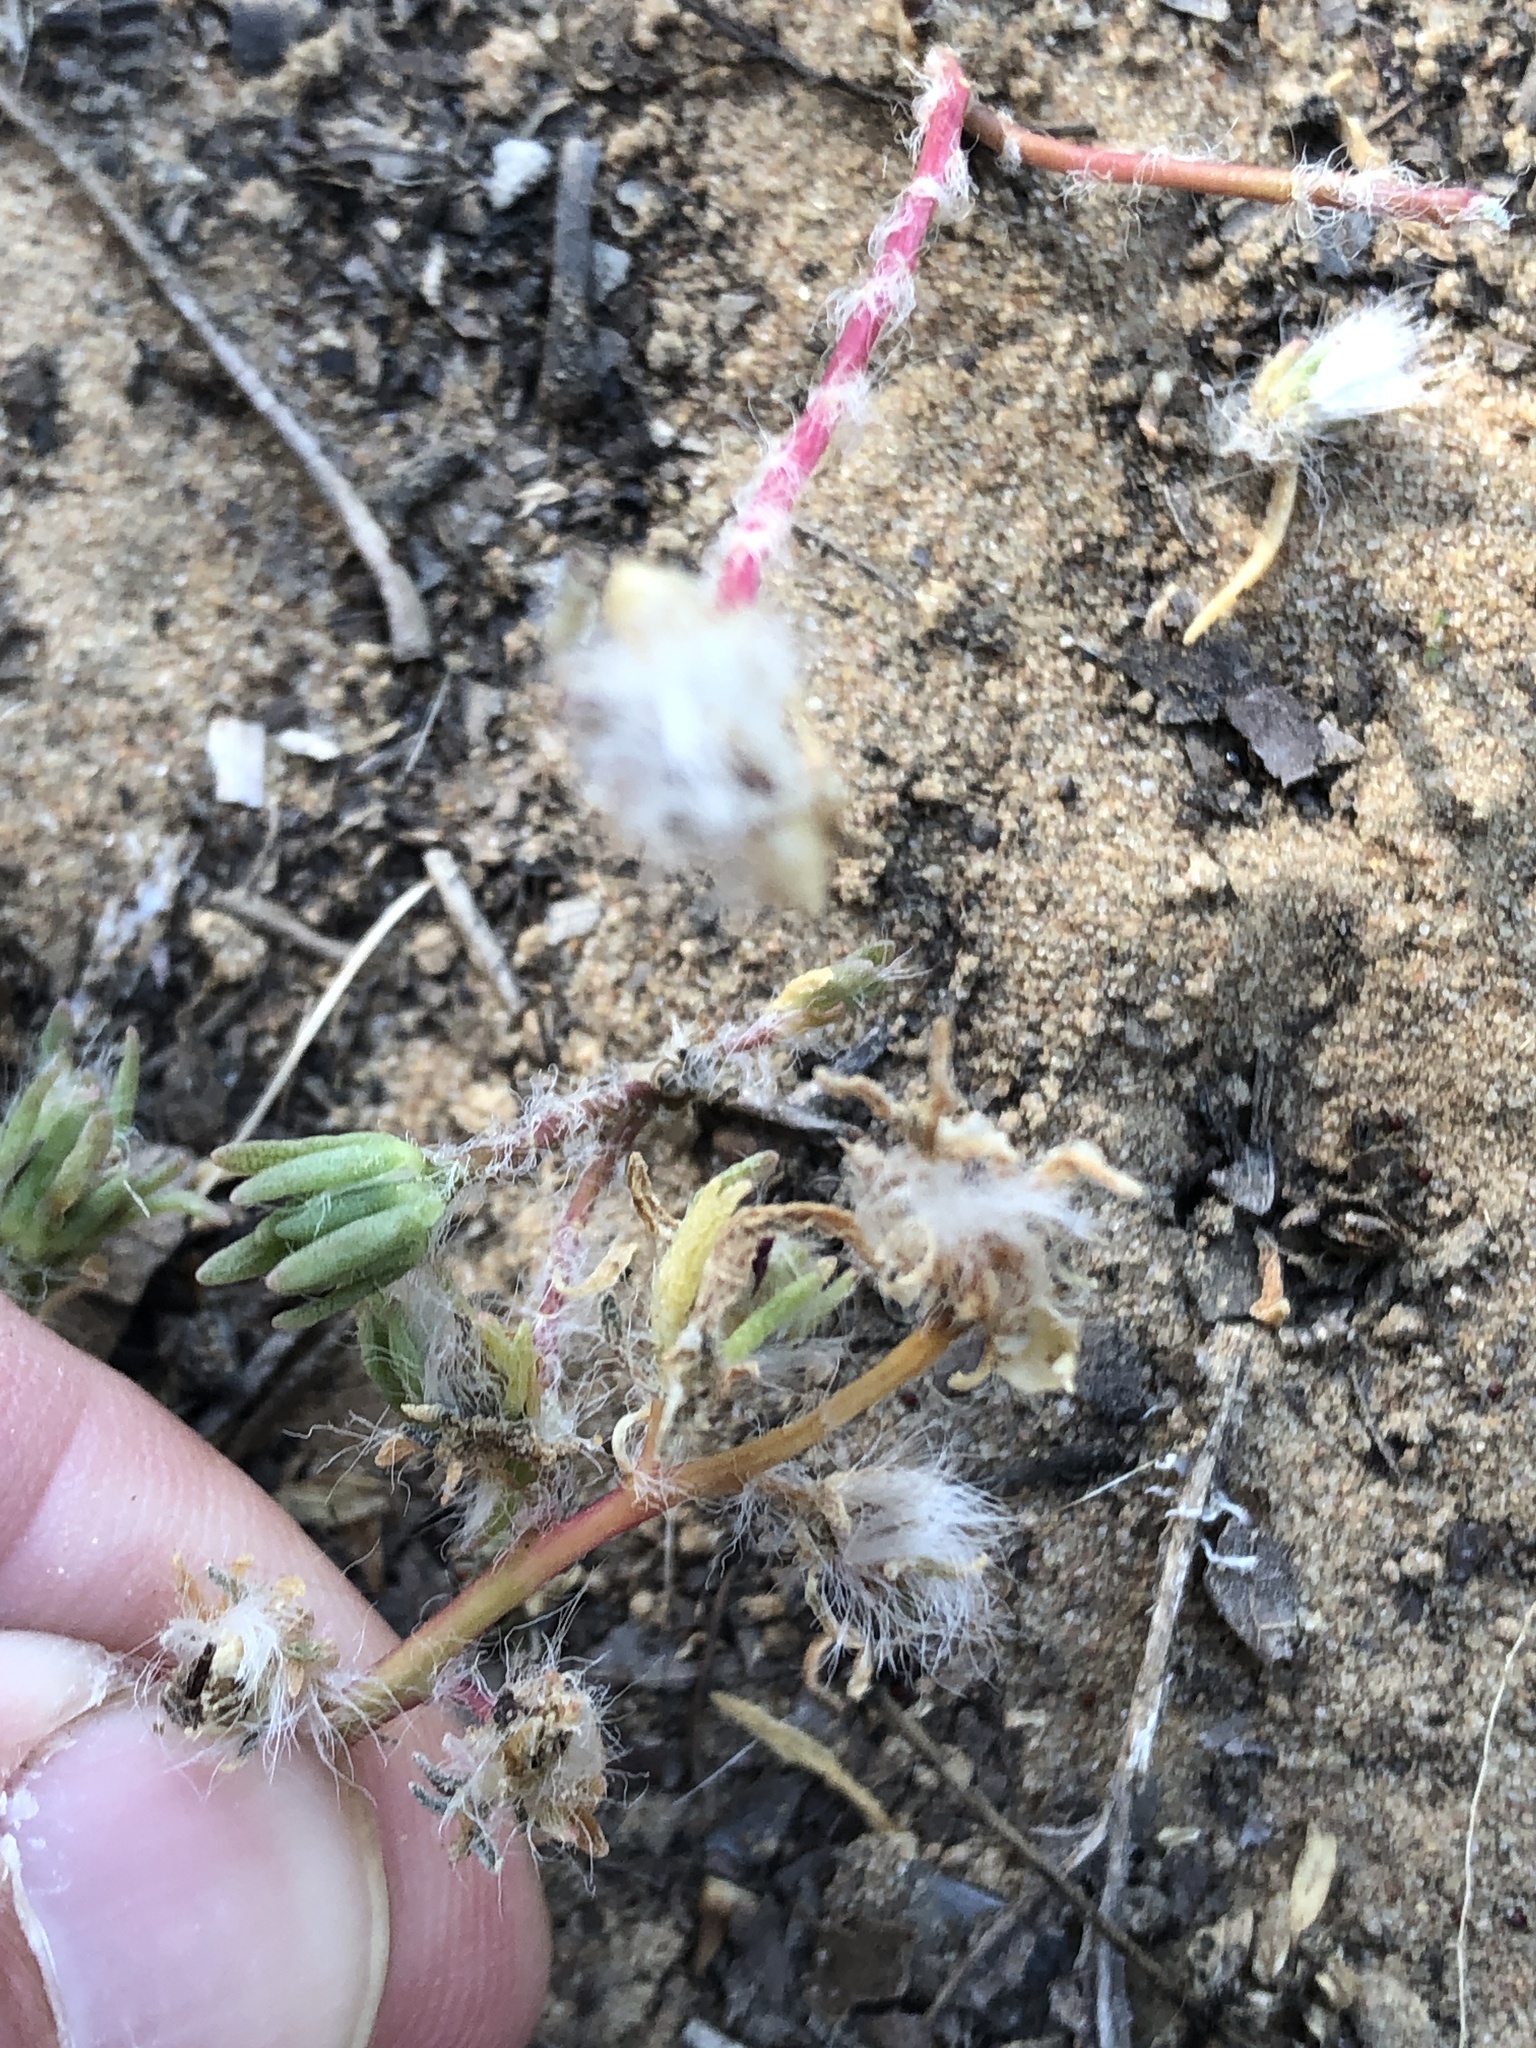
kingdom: Plantae
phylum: Tracheophyta
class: Magnoliopsida
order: Caryophyllales
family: Portulacaceae
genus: Portulaca
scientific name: Portulaca pilosa
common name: Kiss me quick
